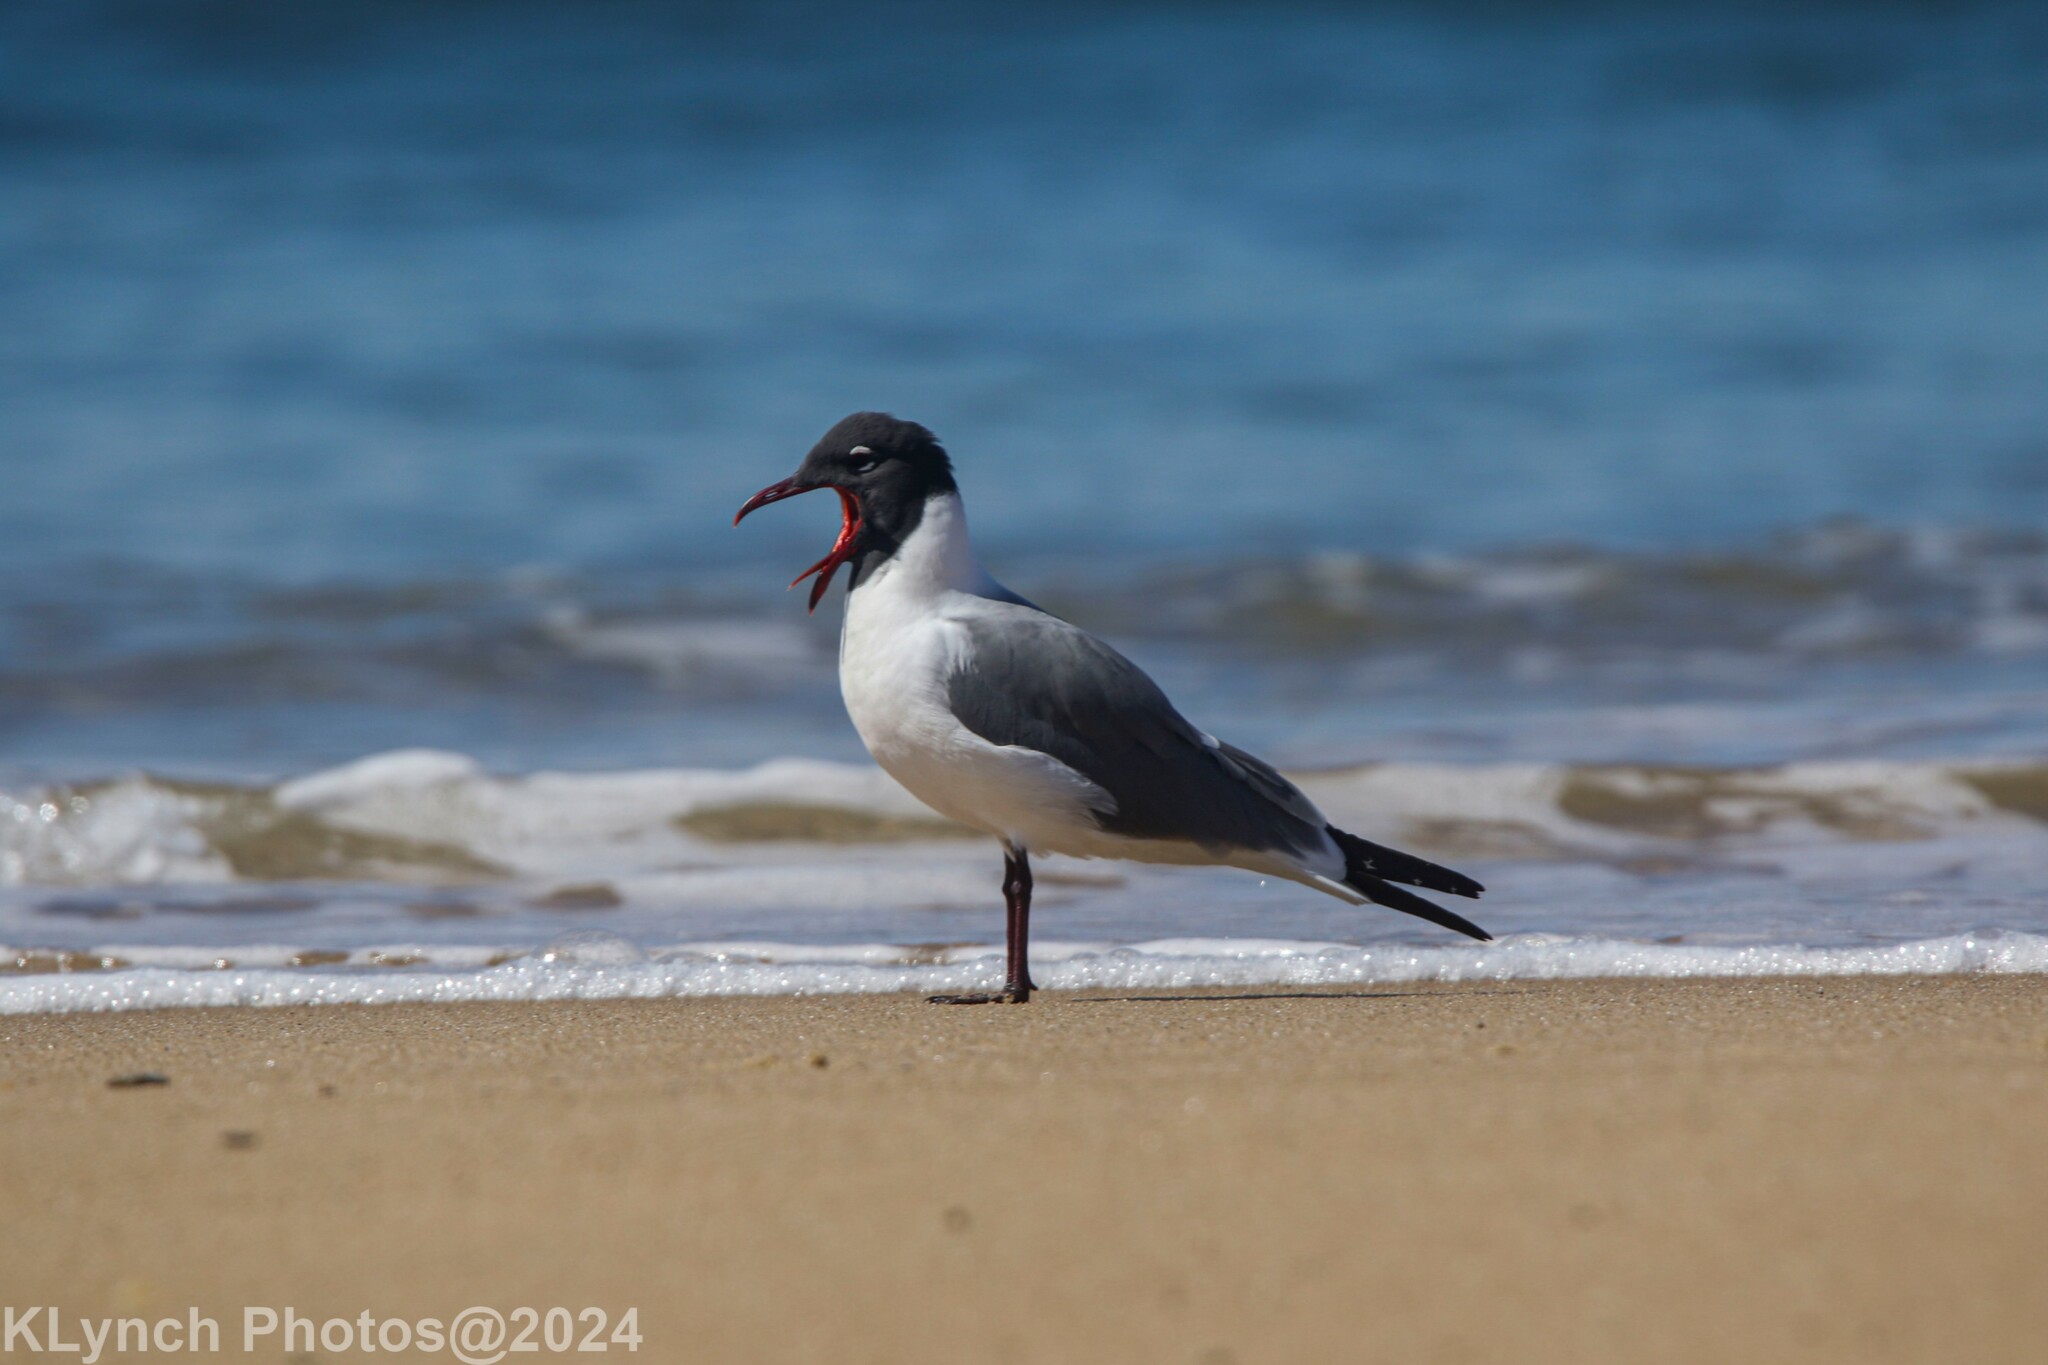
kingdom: Animalia
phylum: Chordata
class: Aves
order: Charadriiformes
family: Laridae
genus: Leucophaeus
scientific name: Leucophaeus atricilla
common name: Laughing gull
